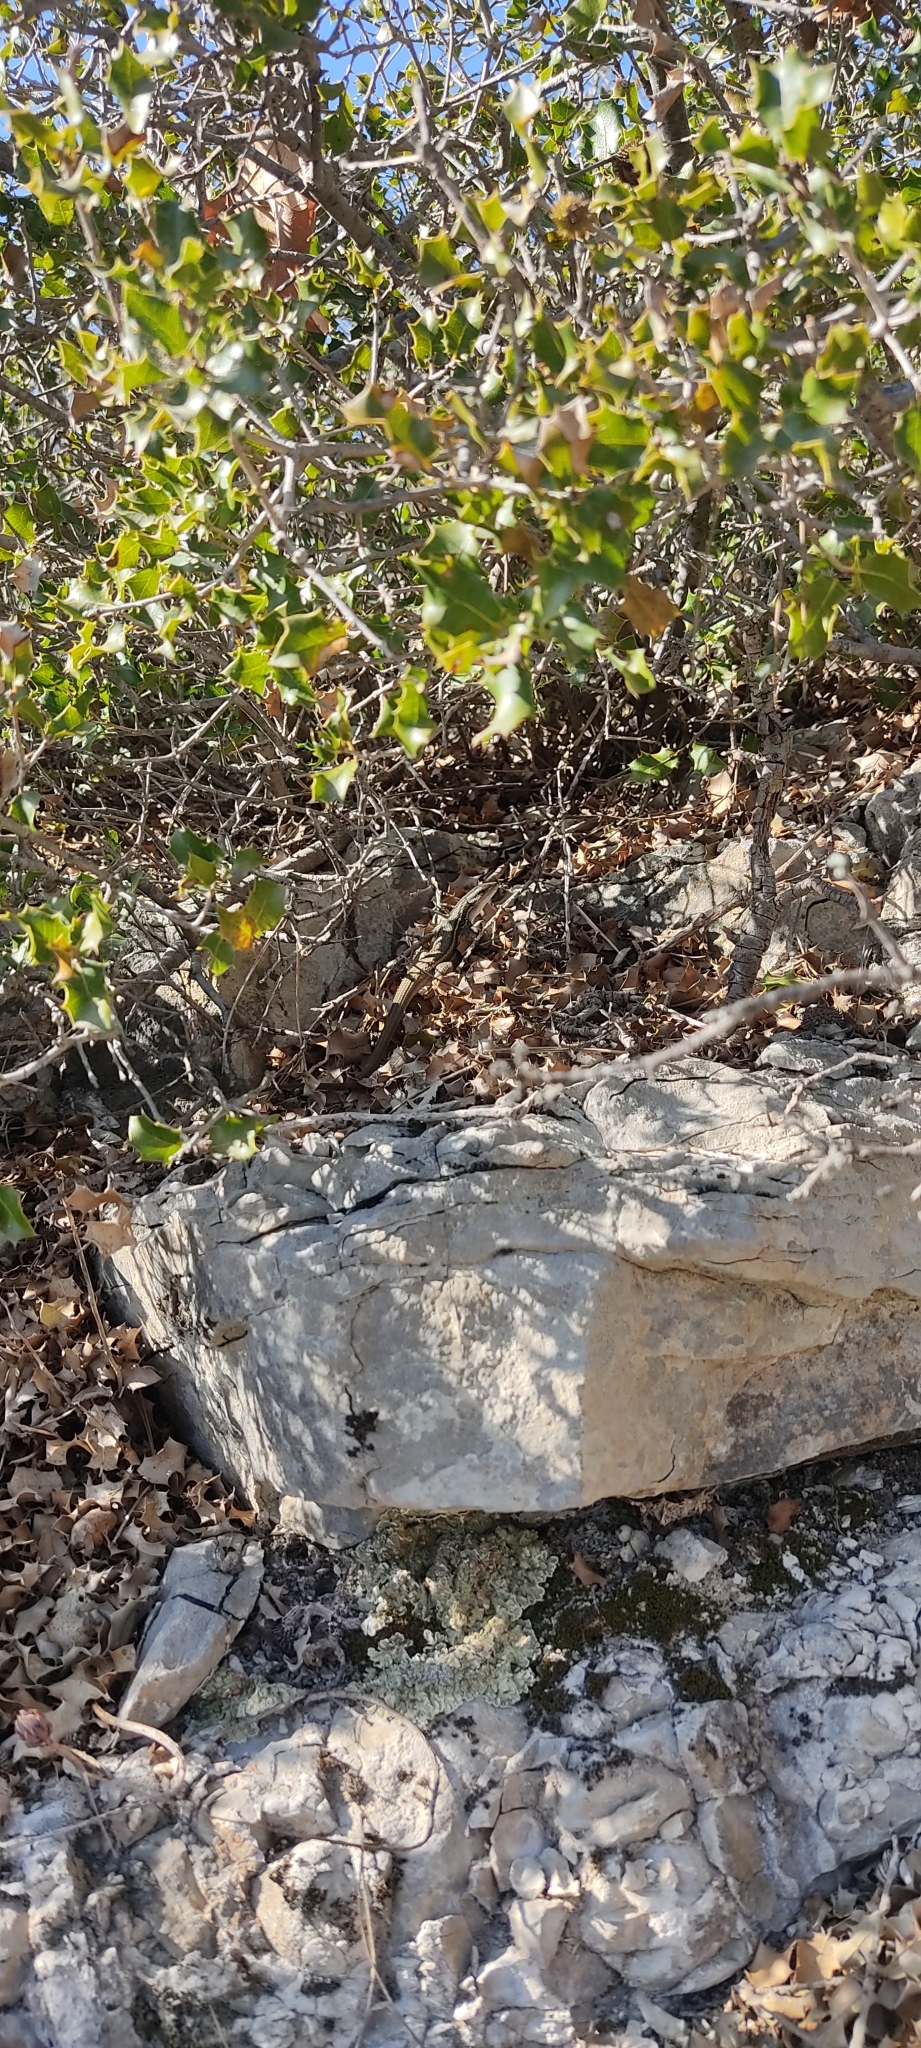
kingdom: Animalia
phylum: Chordata
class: Squamata
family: Lacertidae
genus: Psammodromus
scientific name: Psammodromus algirus
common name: Algerian psammodromus
